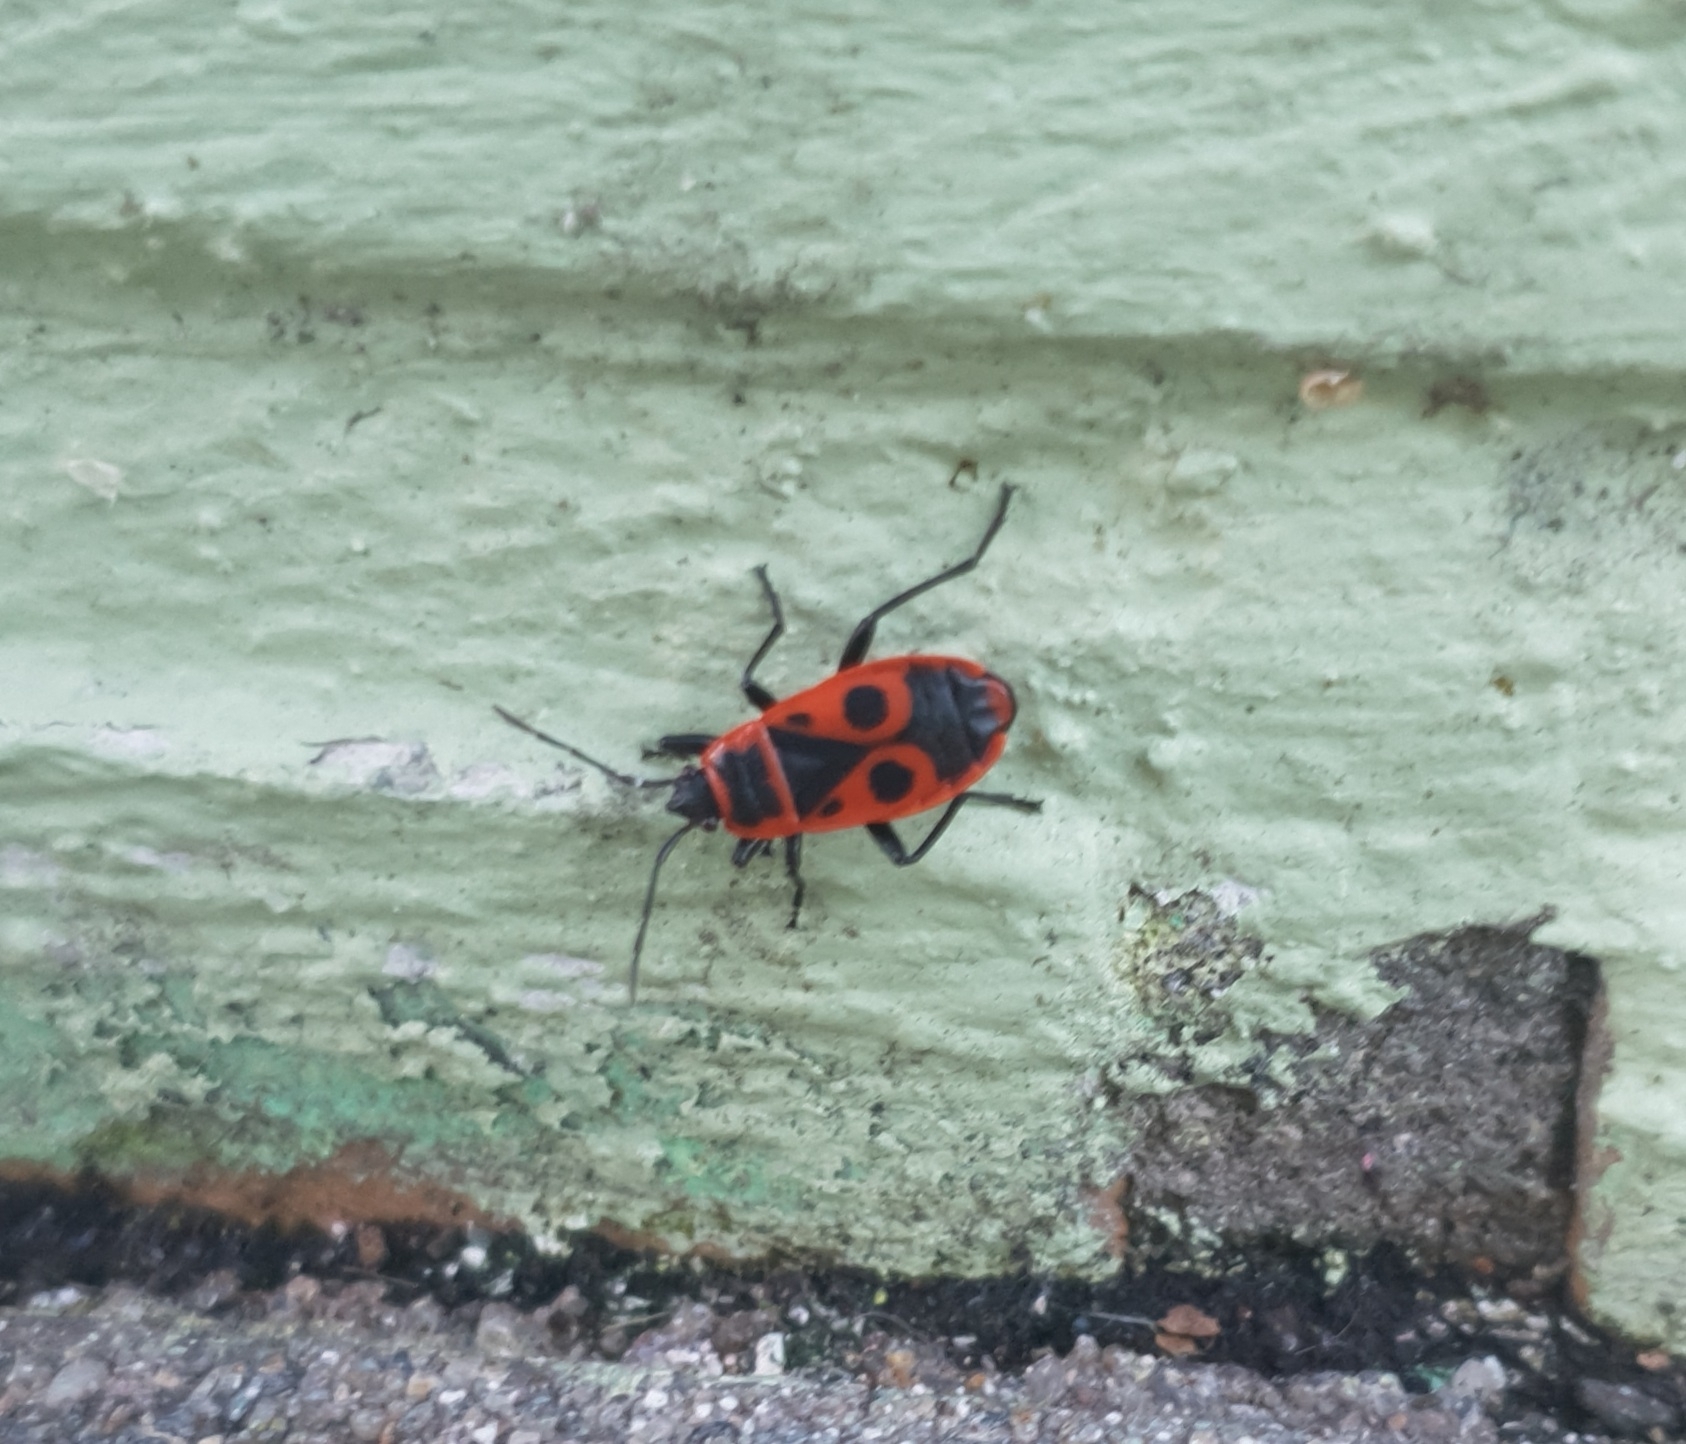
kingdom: Animalia
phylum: Arthropoda
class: Insecta
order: Hemiptera
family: Pyrrhocoridae
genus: Pyrrhocoris
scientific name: Pyrrhocoris apterus
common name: Firebug
